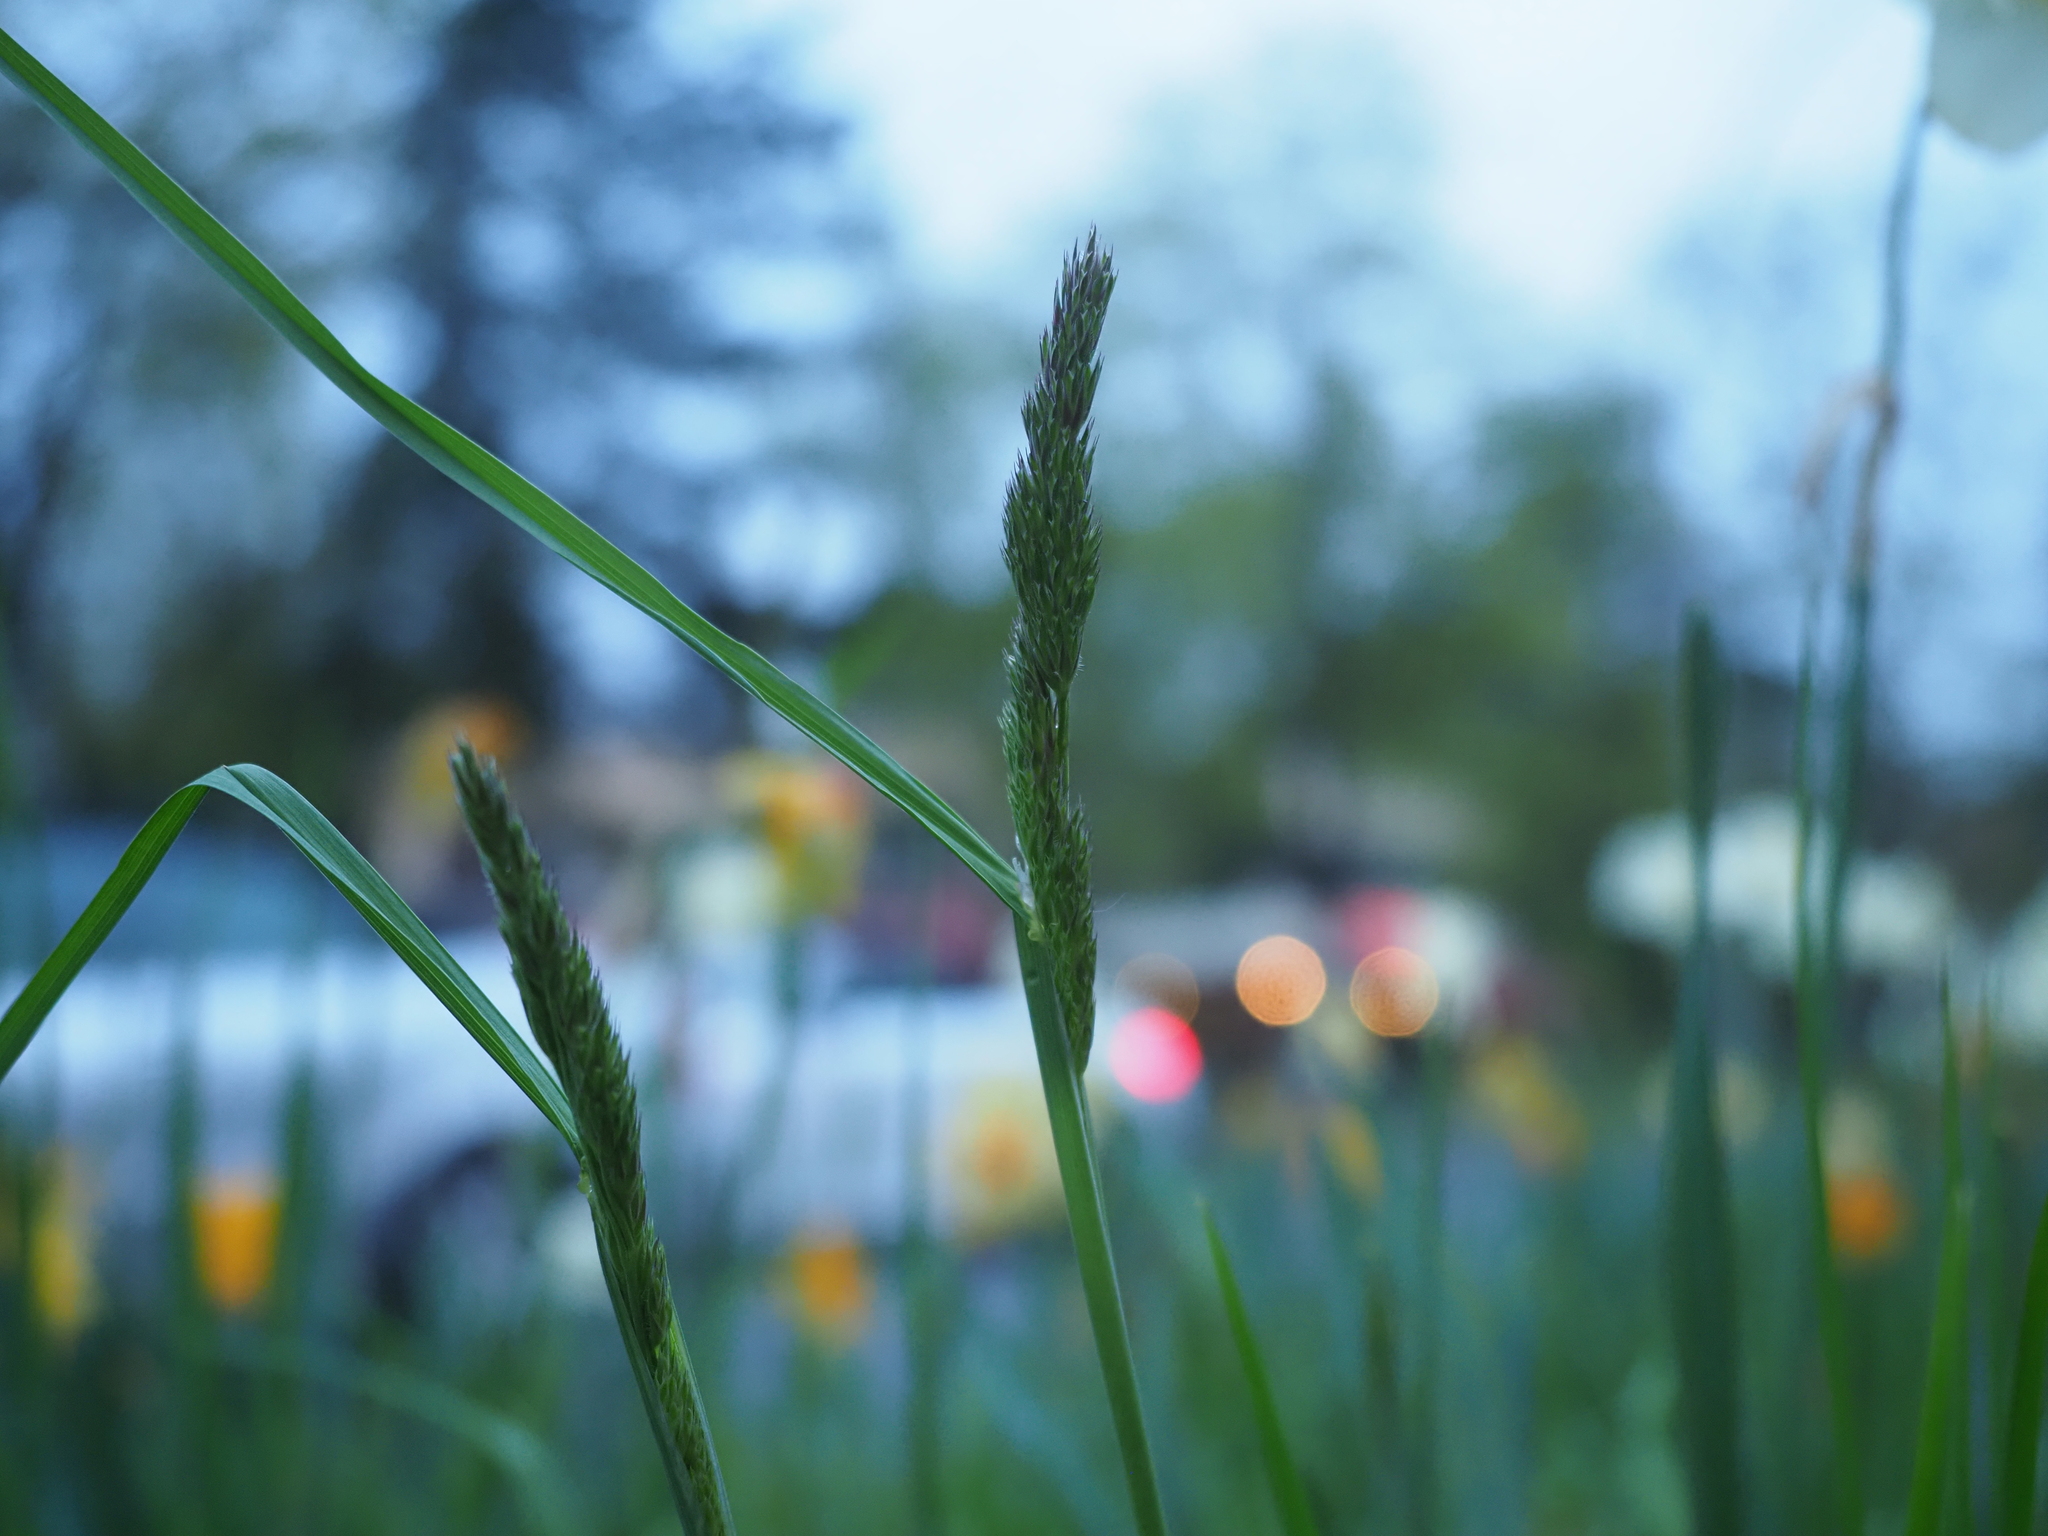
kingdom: Plantae
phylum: Tracheophyta
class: Liliopsida
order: Poales
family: Poaceae
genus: Dactylis
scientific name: Dactylis glomerata
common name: Orchardgrass
